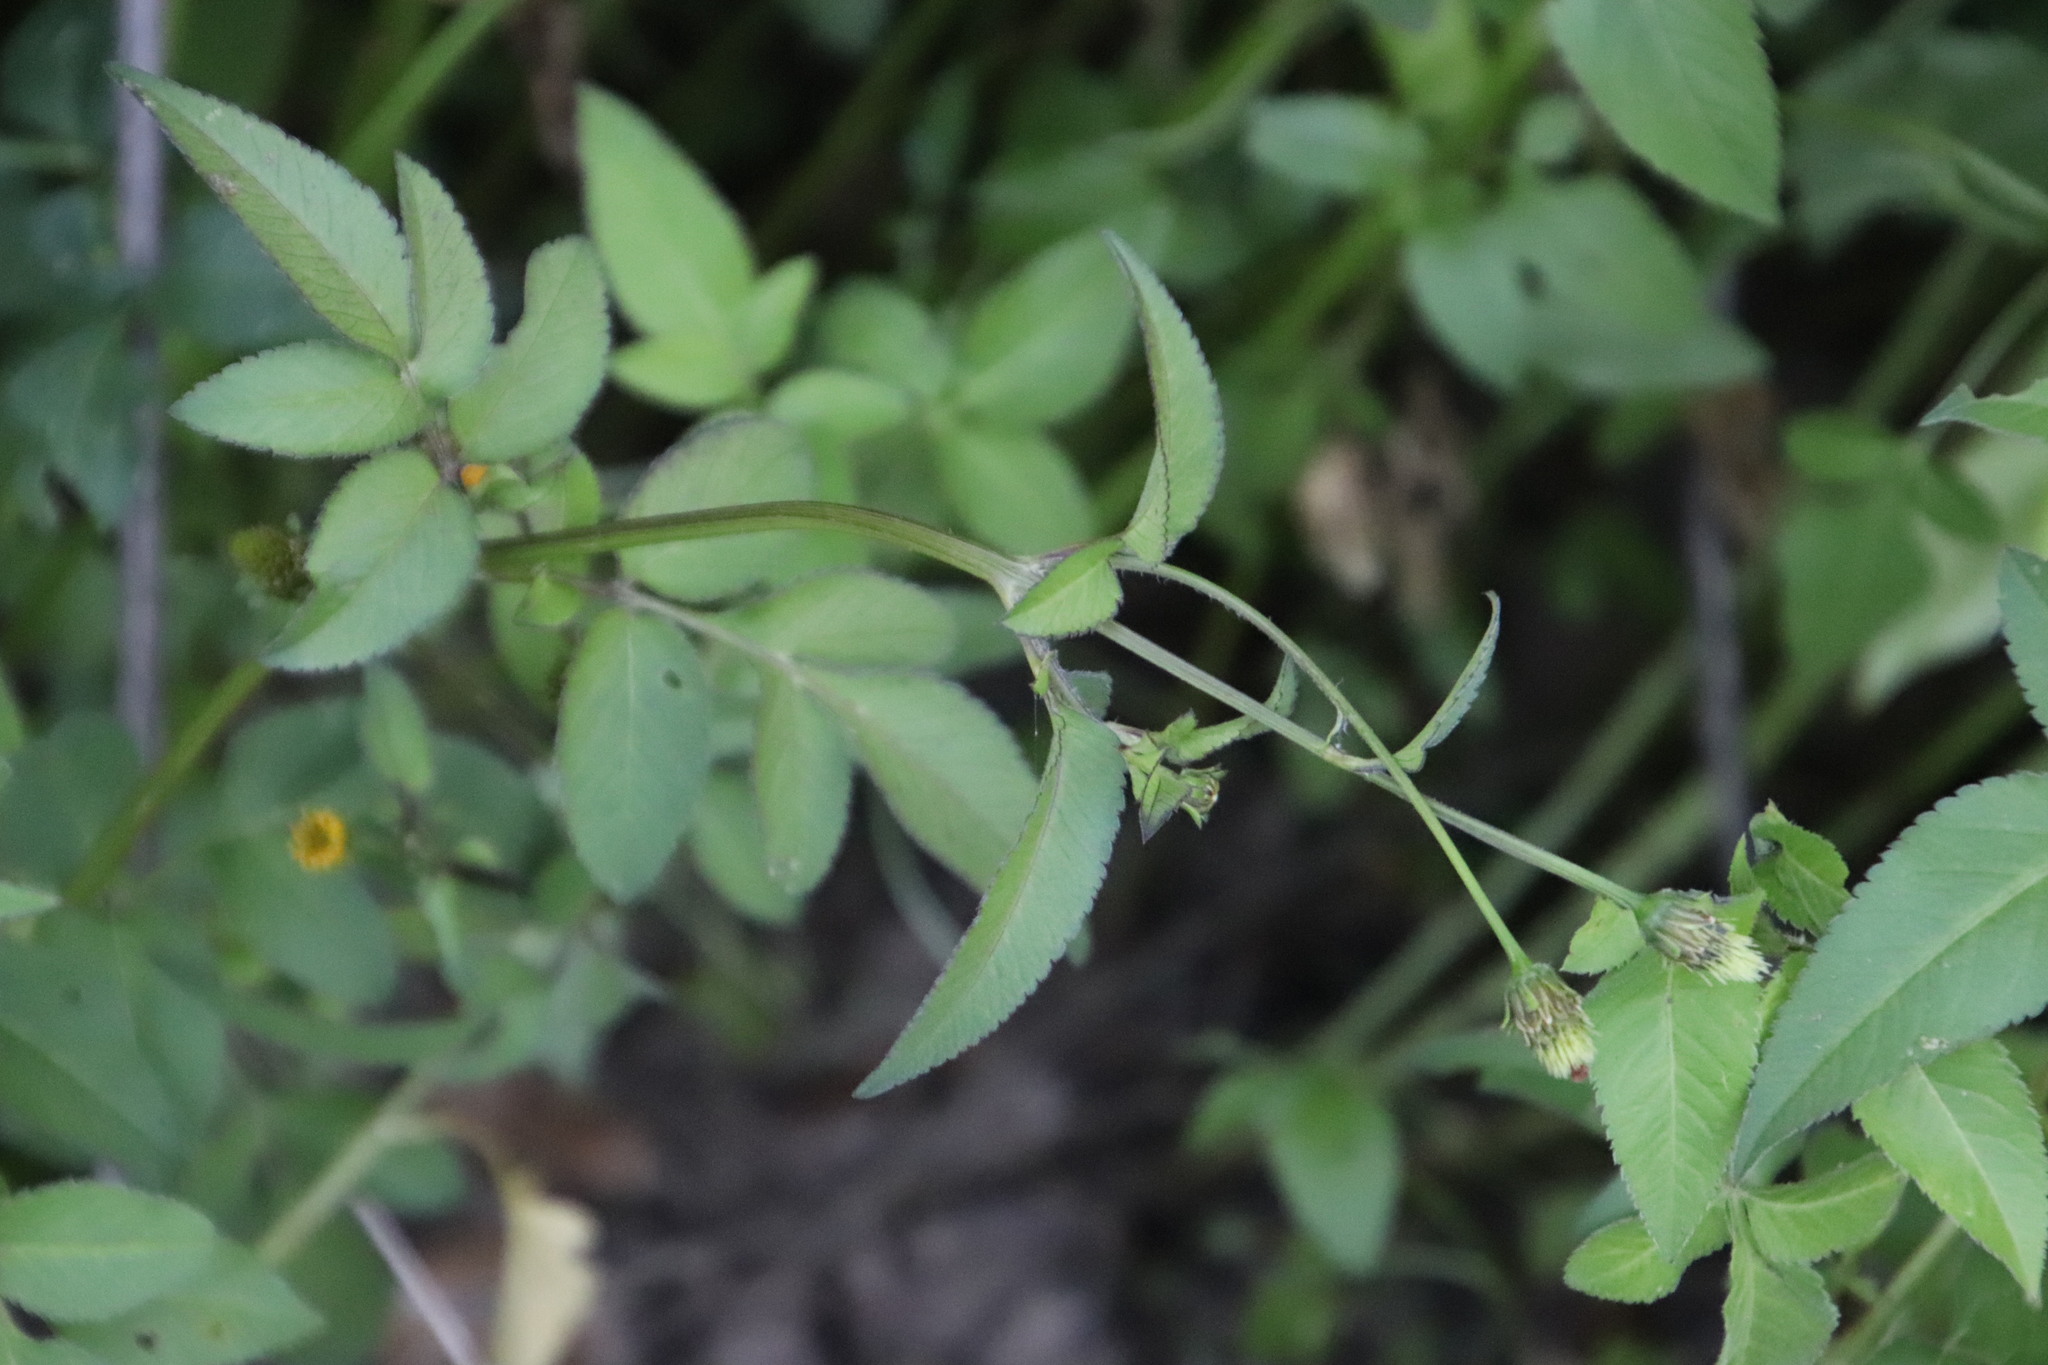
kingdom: Plantae
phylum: Tracheophyta
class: Magnoliopsida
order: Asterales
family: Asteraceae
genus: Bidens
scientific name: Bidens pilosa
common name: Black-jack
